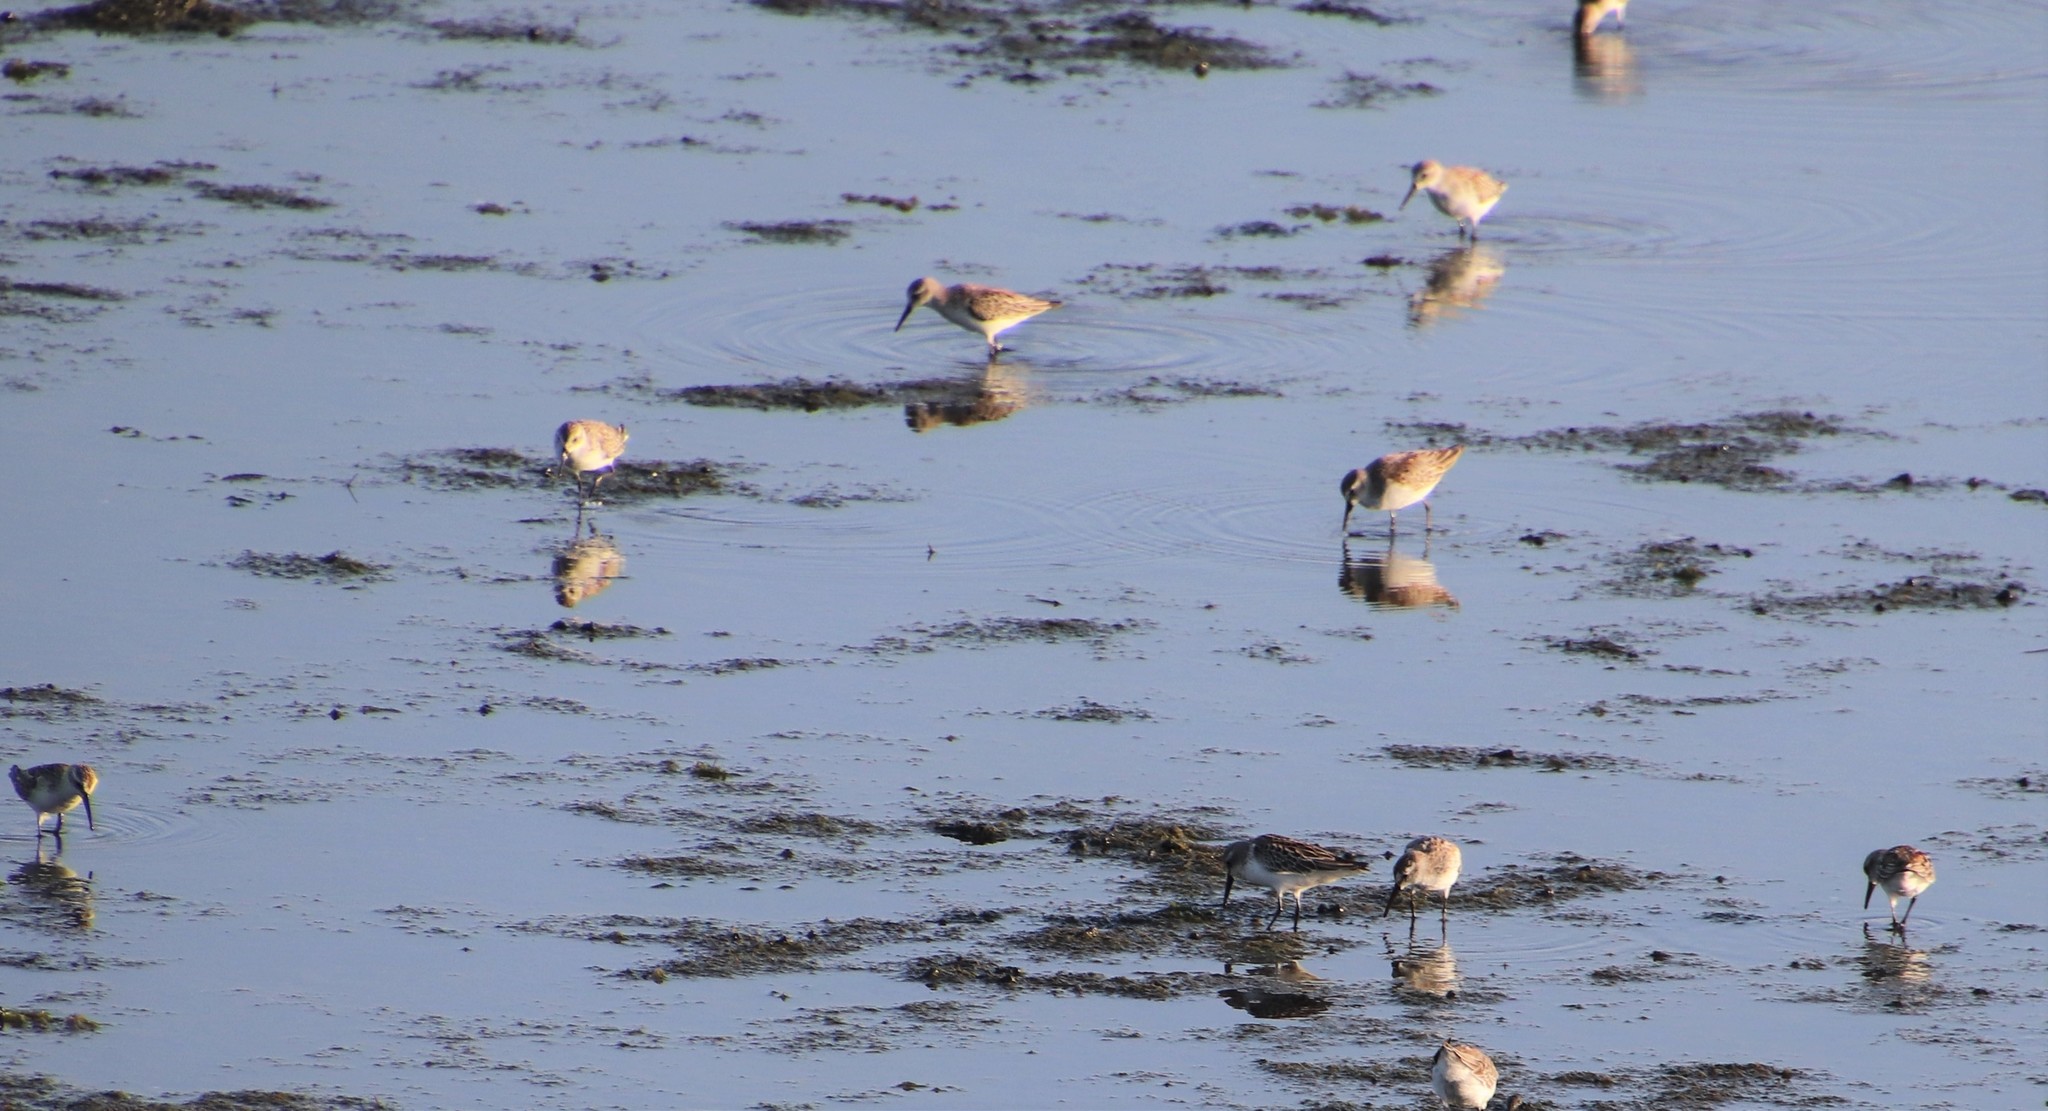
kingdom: Animalia
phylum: Chordata
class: Aves
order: Charadriiformes
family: Scolopacidae
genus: Calidris
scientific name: Calidris mauri
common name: Western sandpiper
